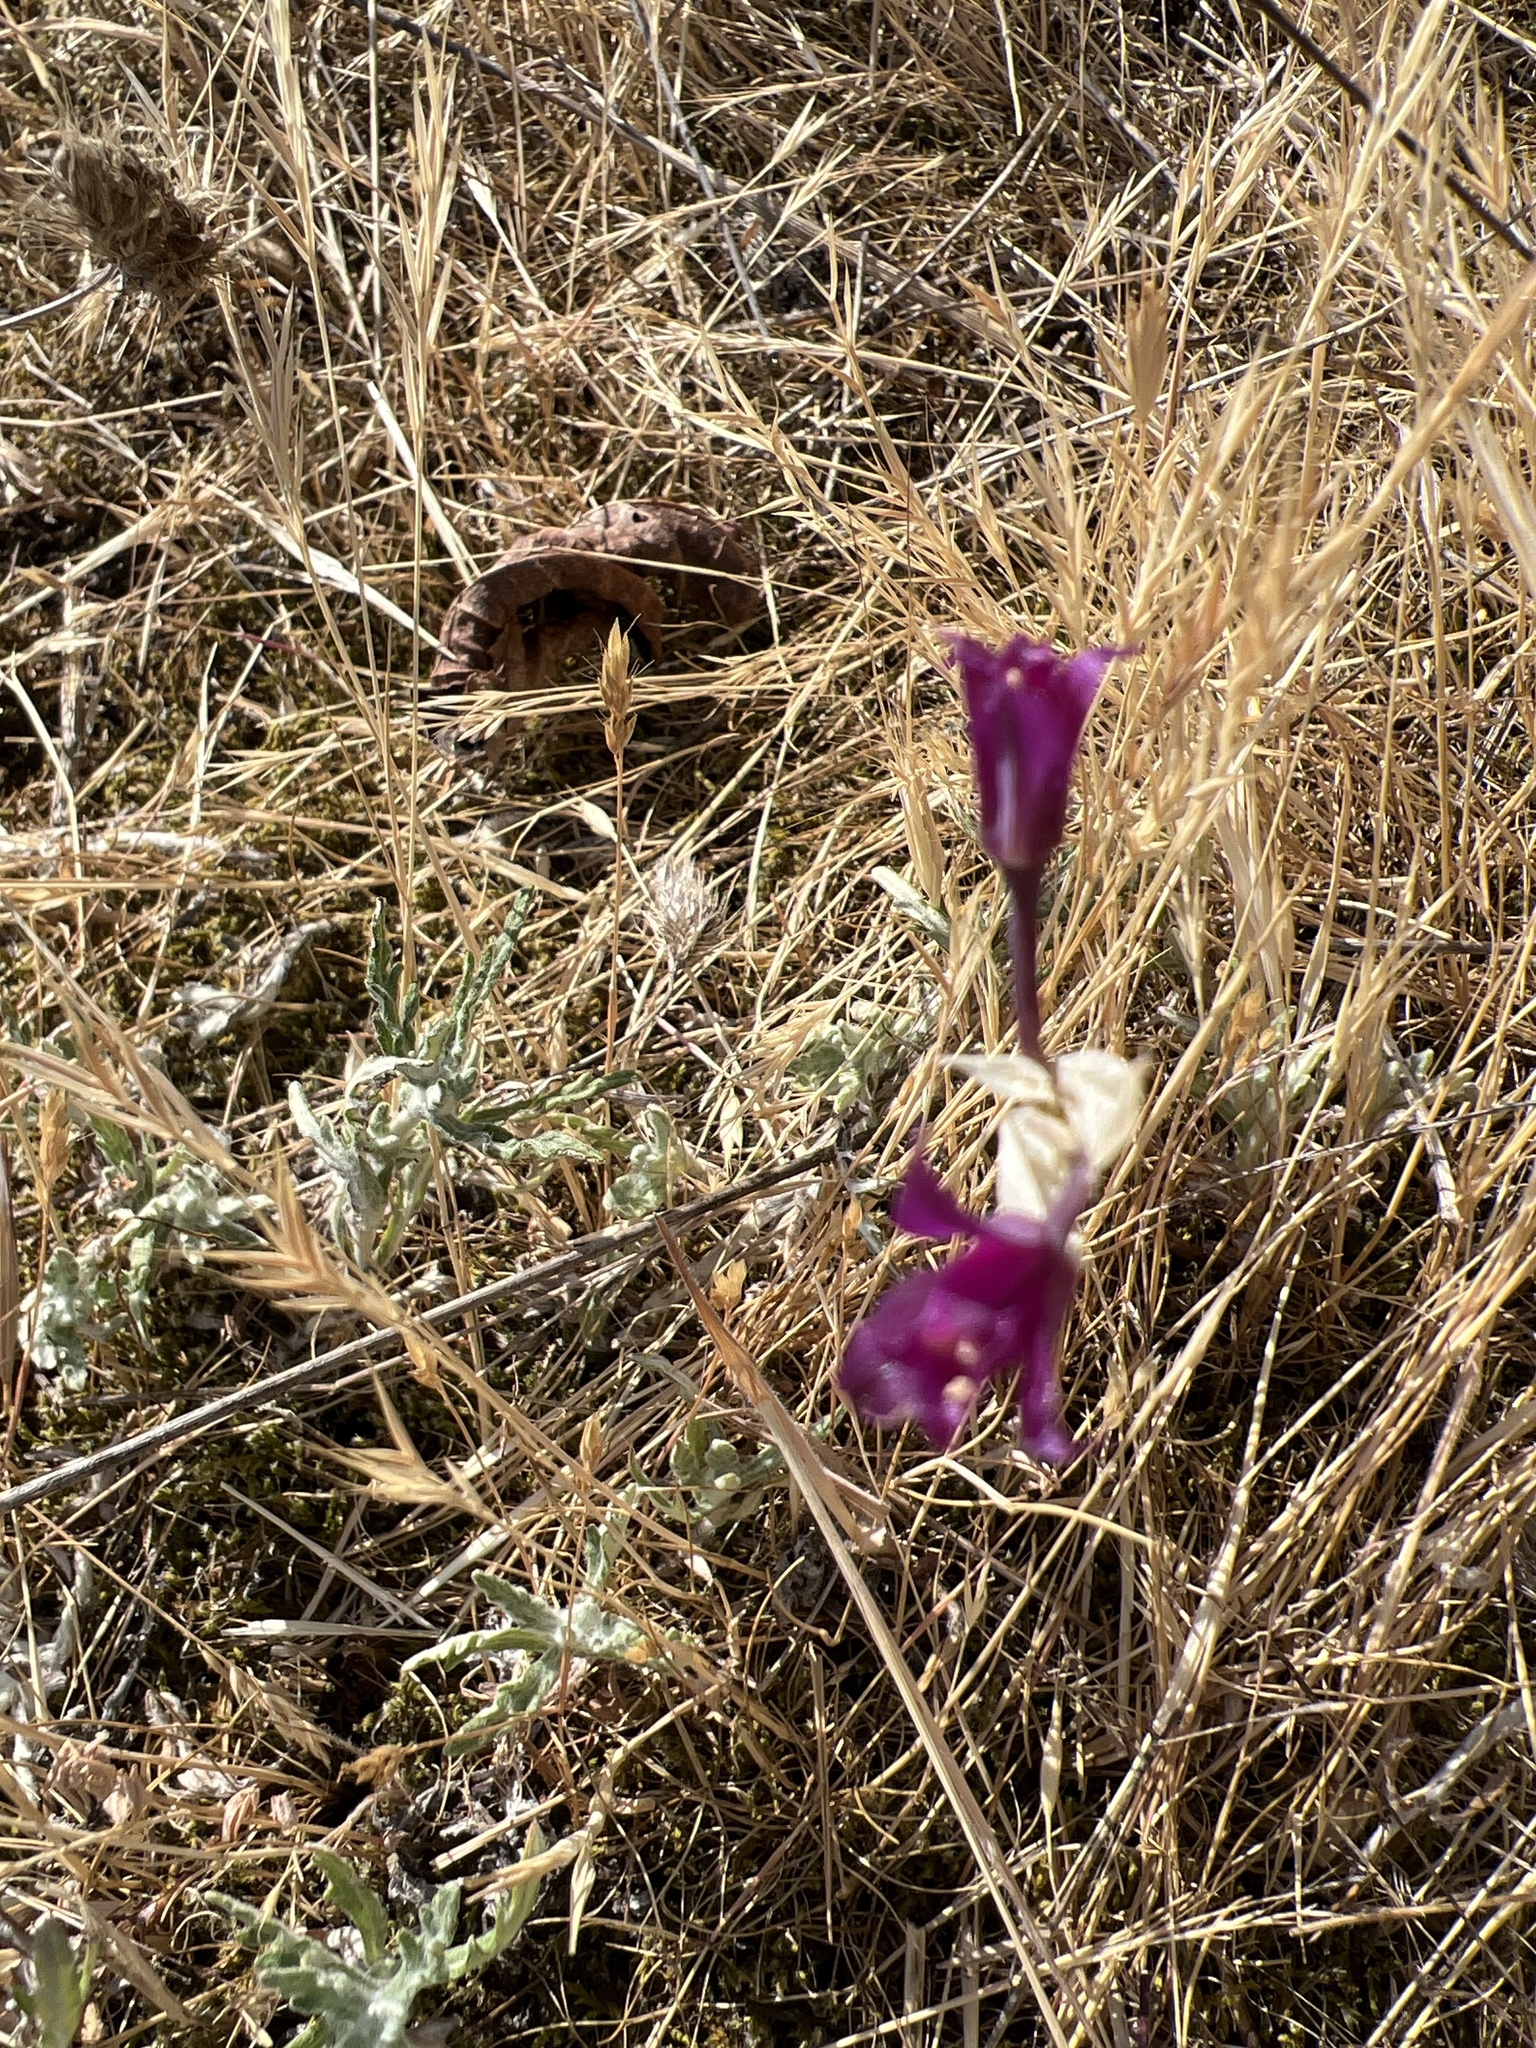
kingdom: Plantae
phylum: Tracheophyta
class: Liliopsida
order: Asparagales
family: Amaryllidaceae
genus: Allium
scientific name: Allium acuminatum
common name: Hooker's onion
